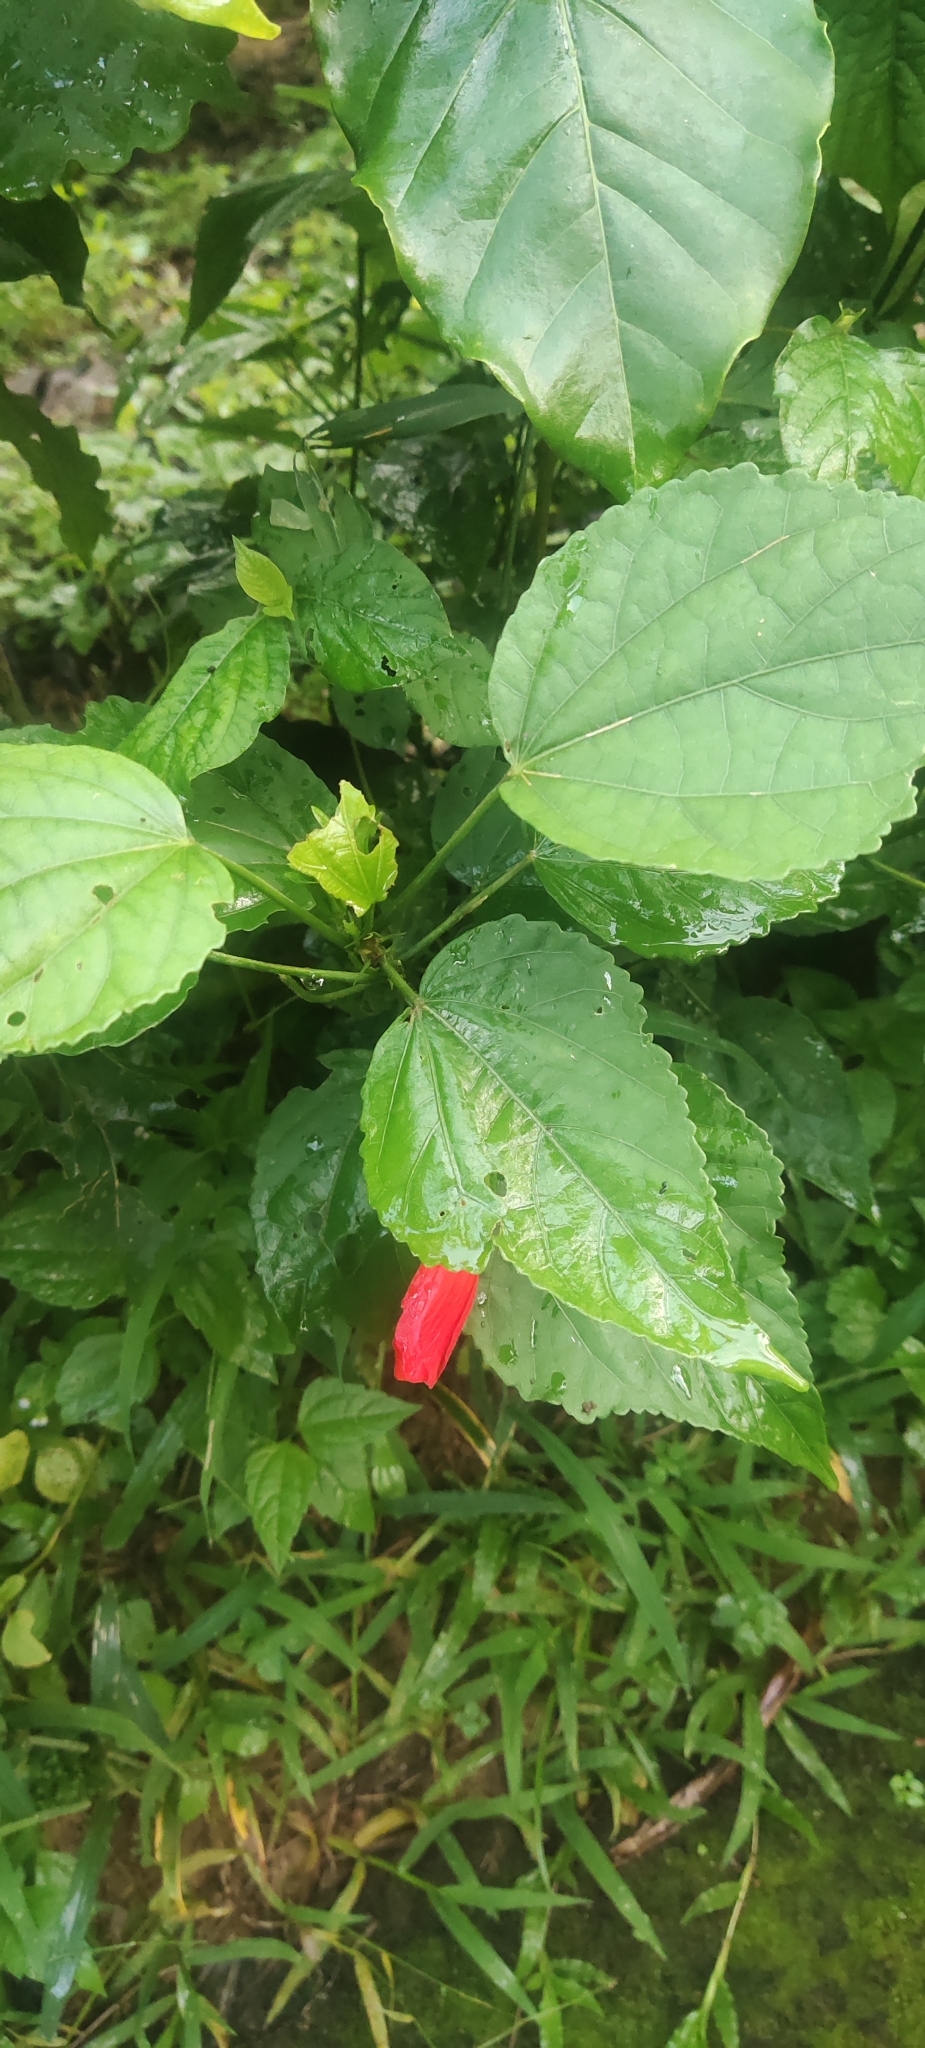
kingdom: Plantae
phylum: Tracheophyta
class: Magnoliopsida
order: Malvales
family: Malvaceae
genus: Malvaviscus
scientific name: Malvaviscus penduliflorus
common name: Mazapan
